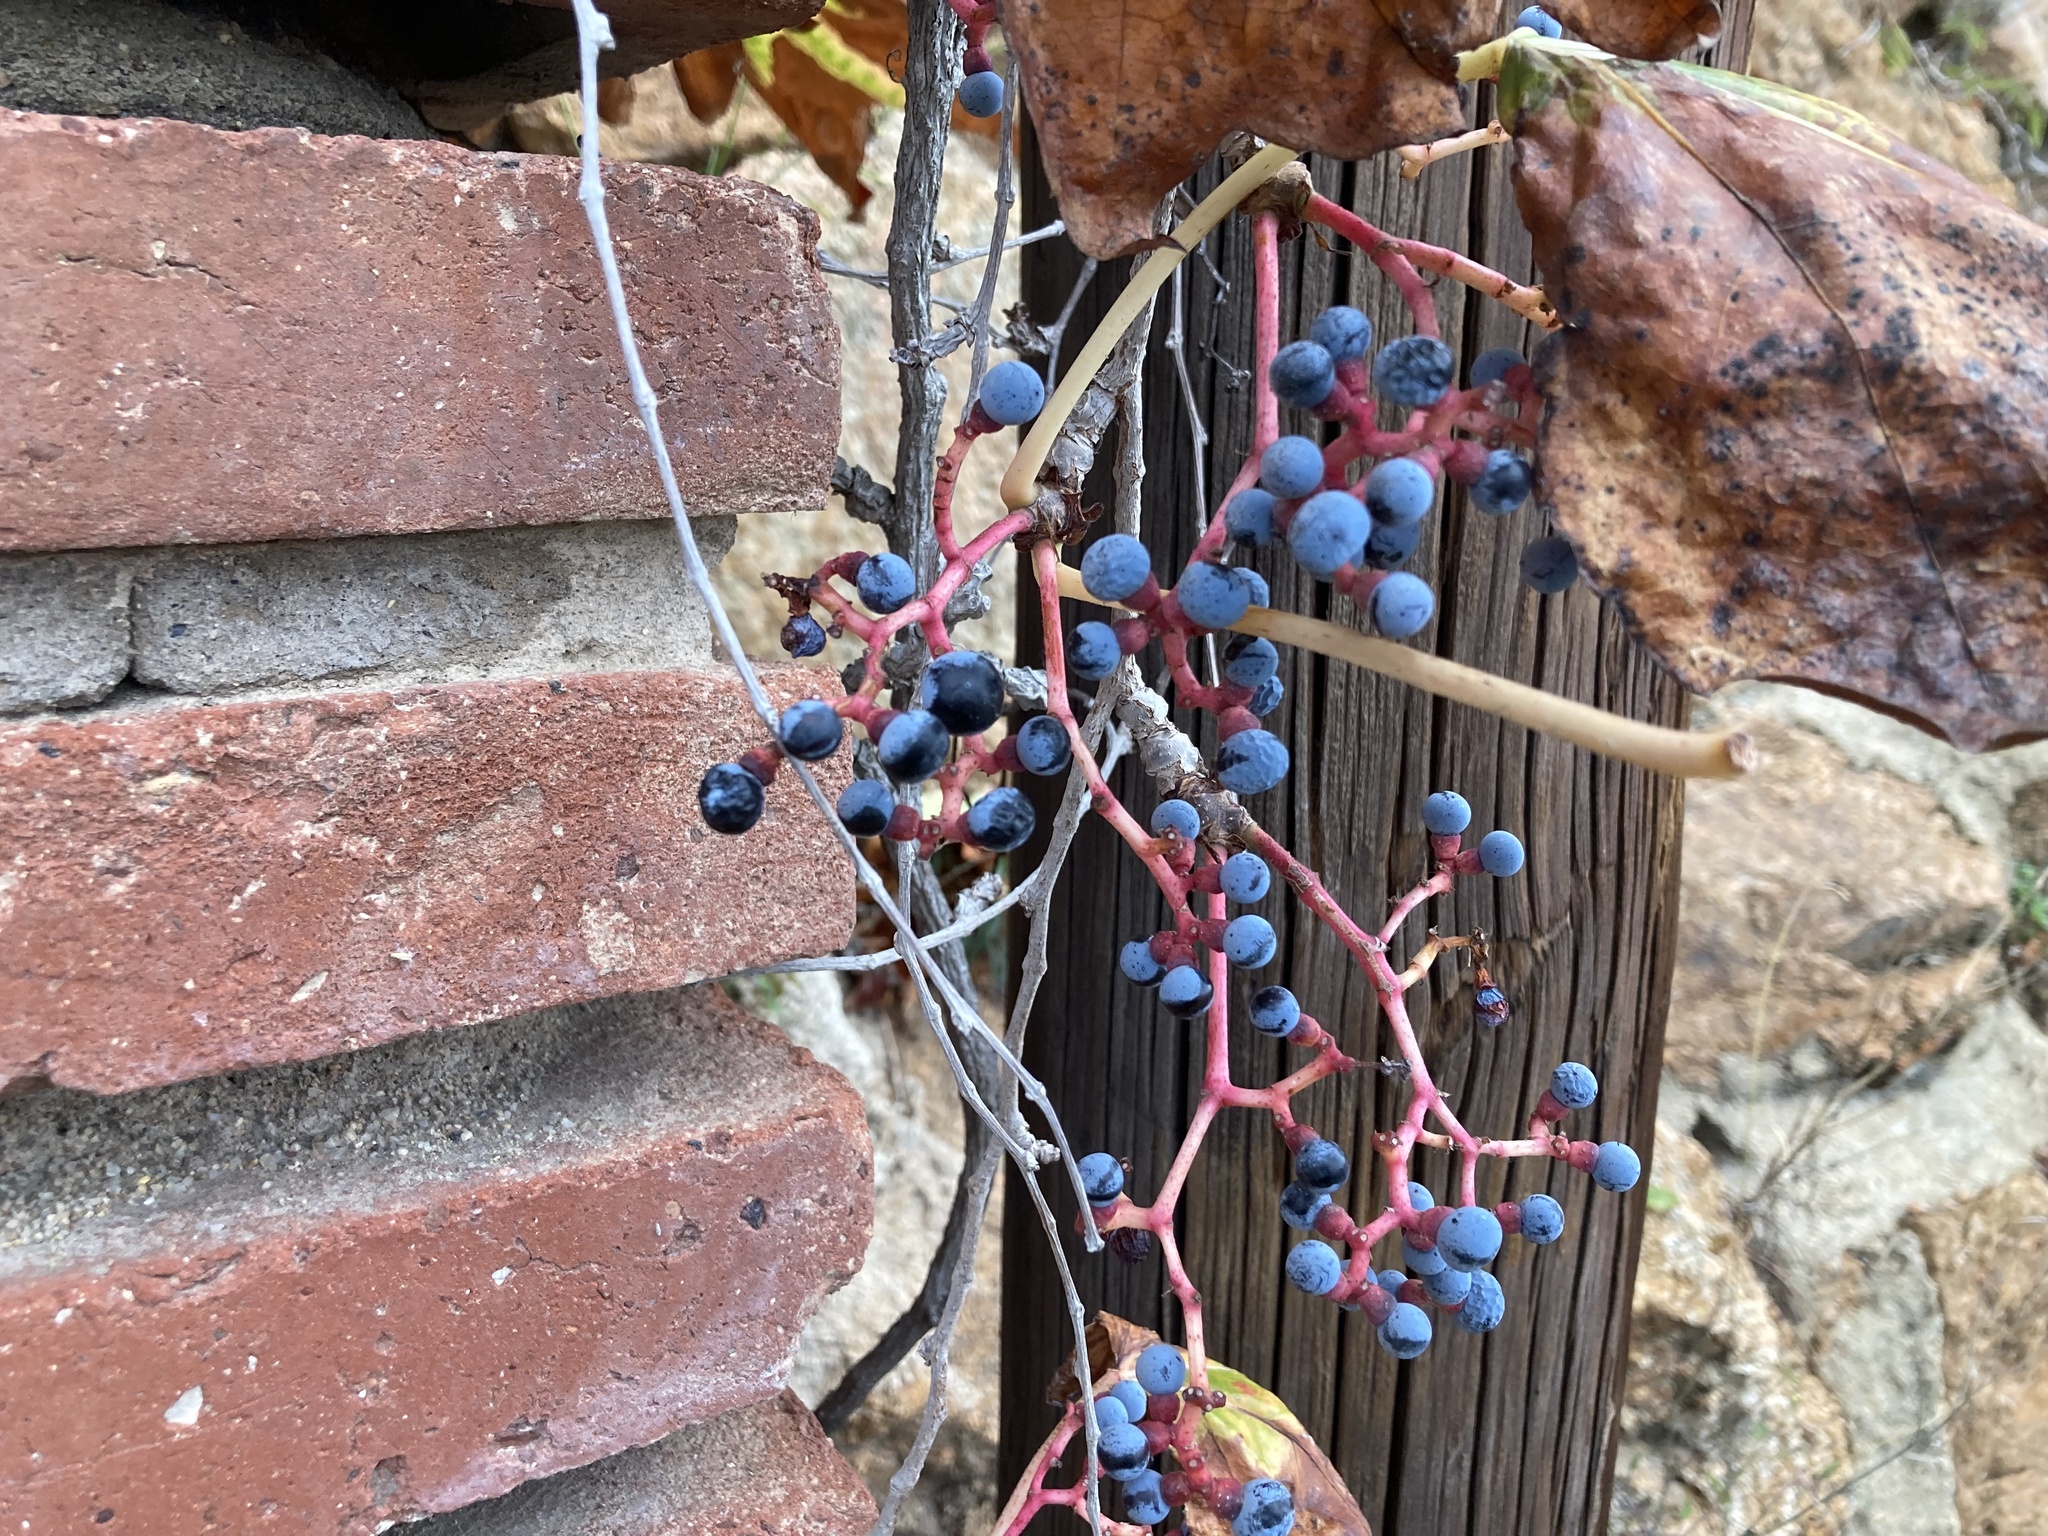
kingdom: Plantae
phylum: Tracheophyta
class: Magnoliopsida
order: Vitales
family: Vitaceae
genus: Parthenocissus
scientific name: Parthenocissus tricuspidata
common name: Boston ivy
